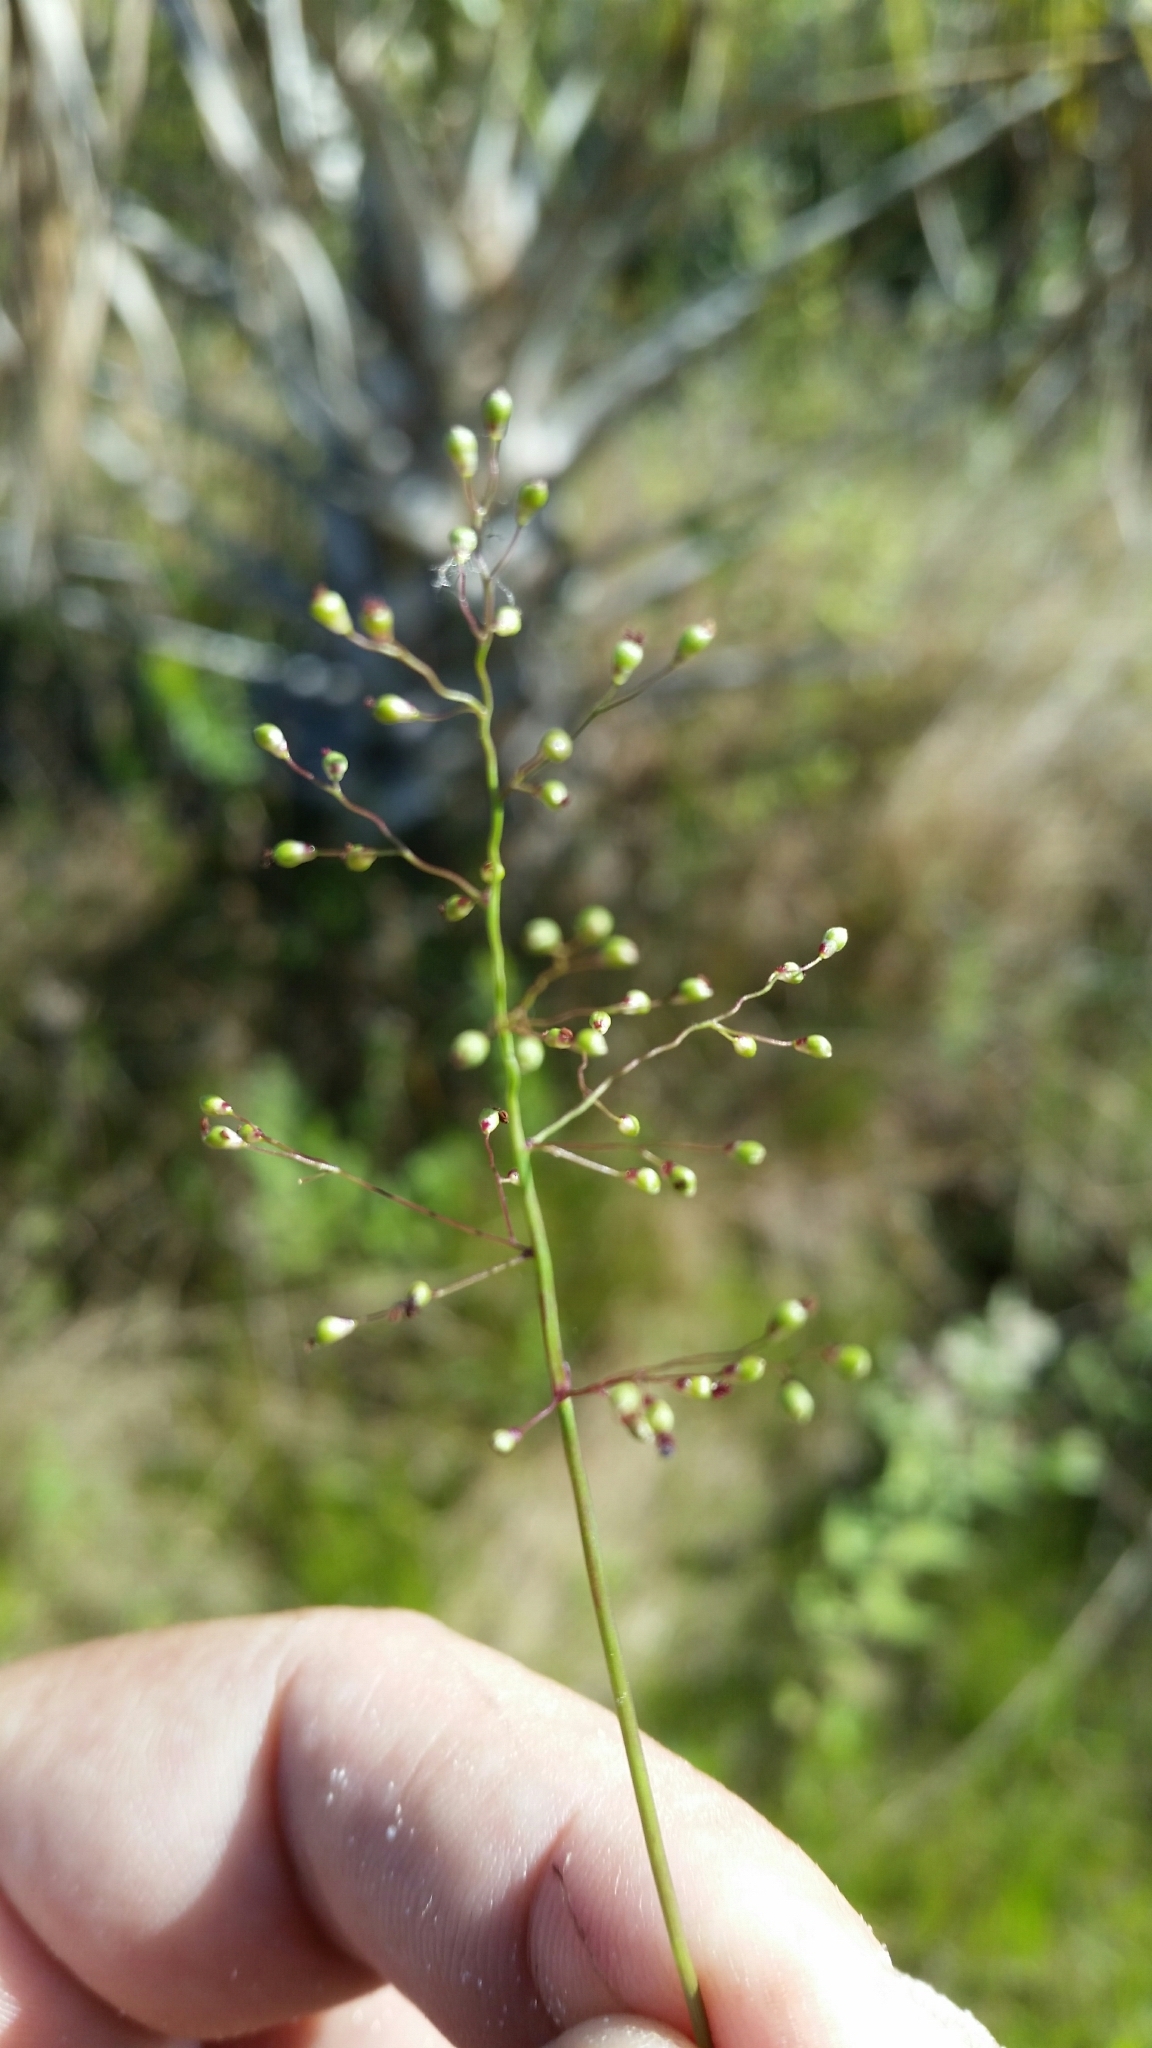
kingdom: Plantae
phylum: Tracheophyta
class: Liliopsida
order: Poales
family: Poaceae
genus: Dichanthelium
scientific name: Dichanthelium portoricense
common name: American panicgrass
